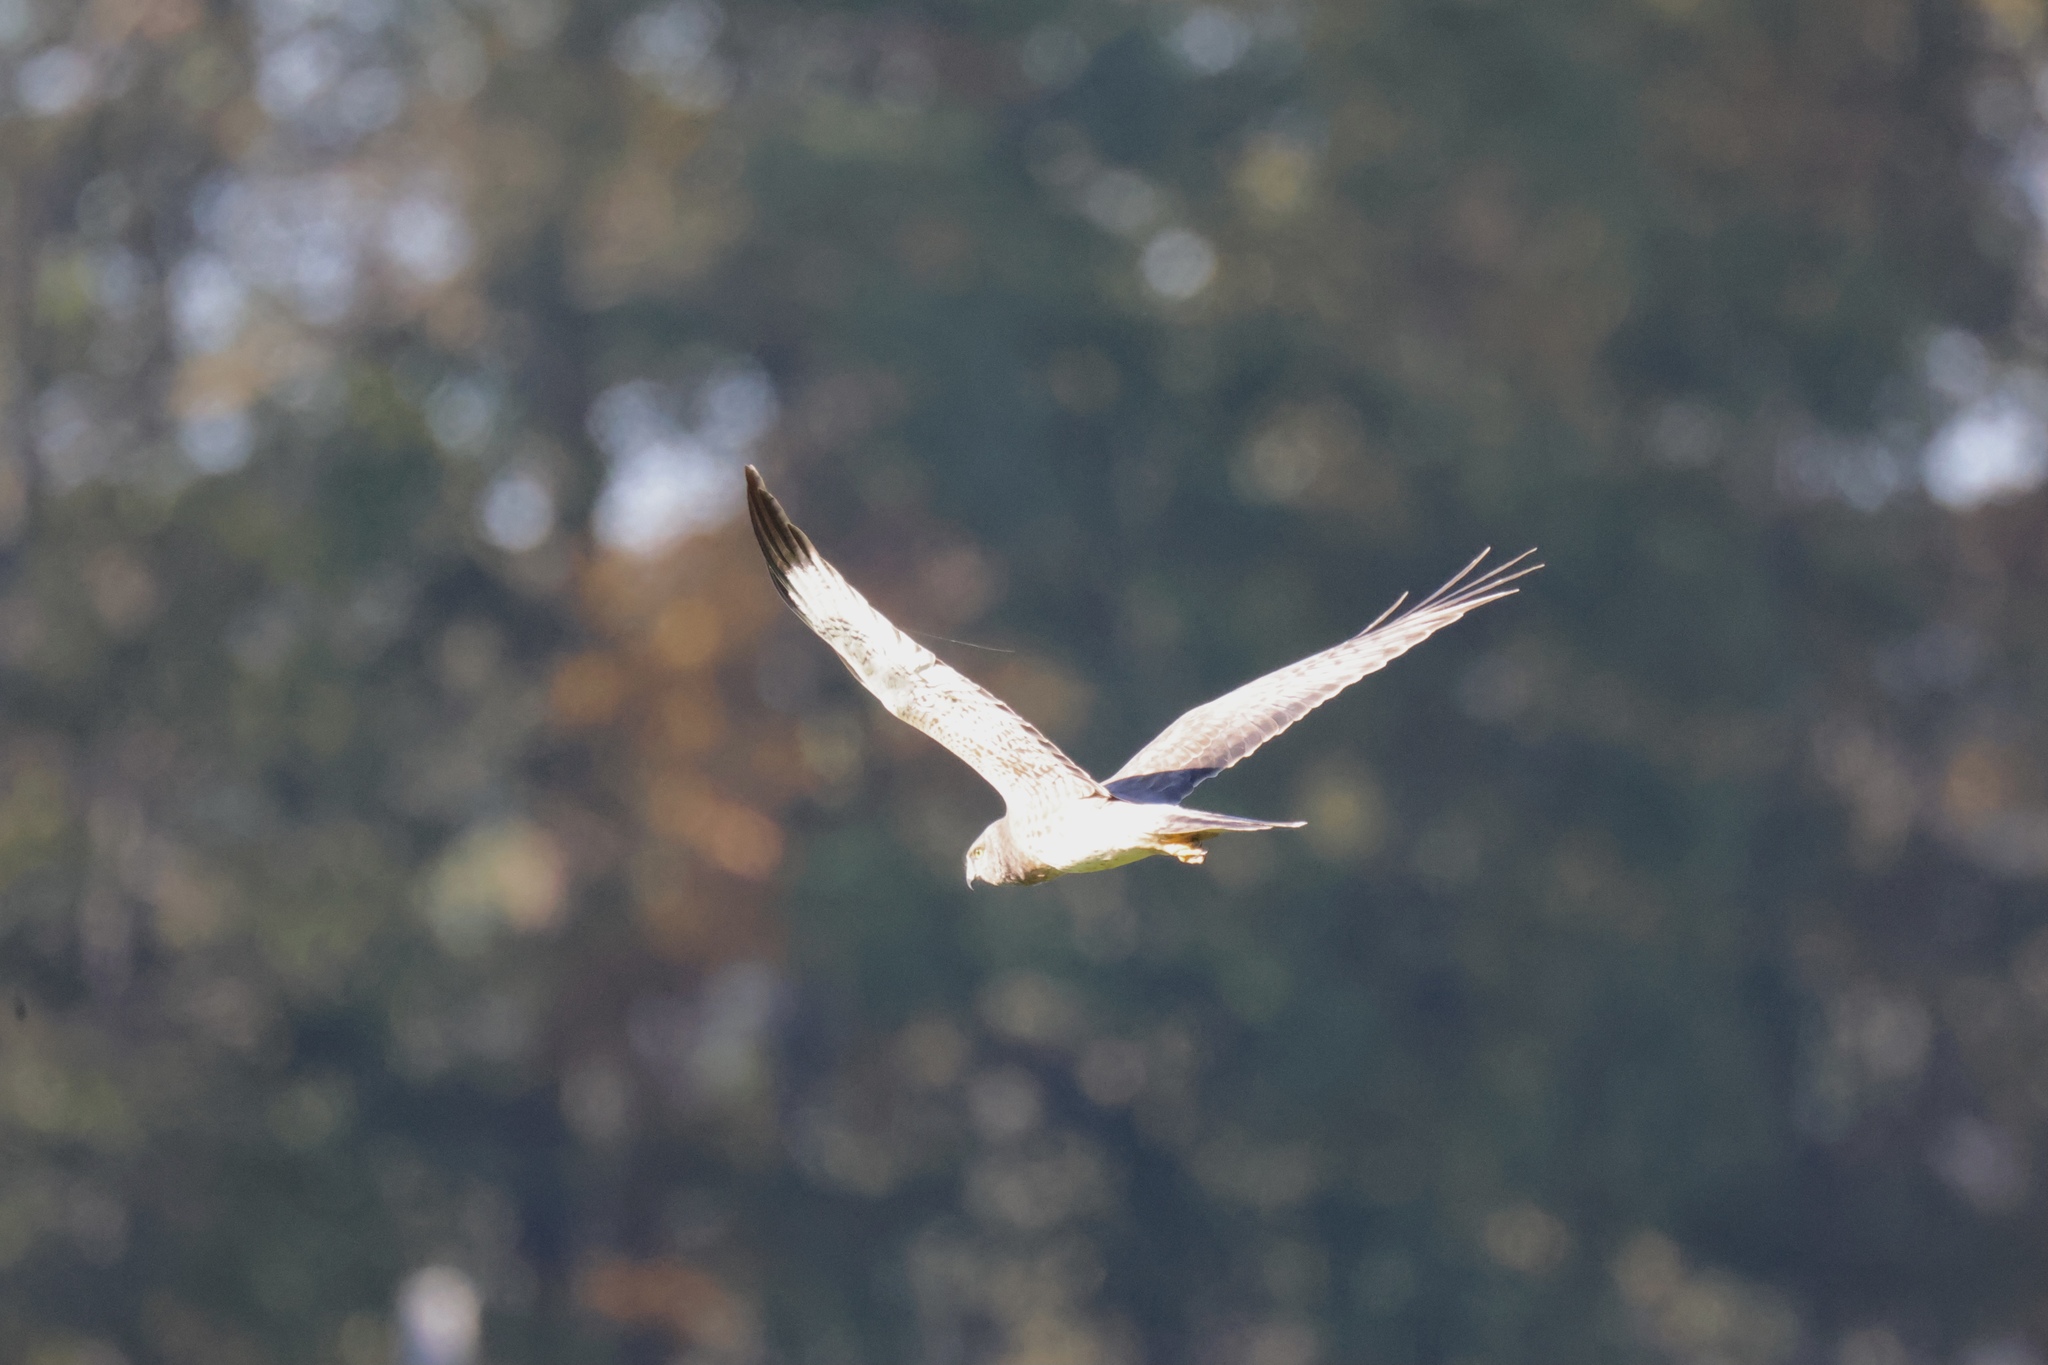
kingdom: Animalia
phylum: Chordata
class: Aves
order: Accipitriformes
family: Accipitridae
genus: Circus
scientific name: Circus cyaneus
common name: Hen harrier
